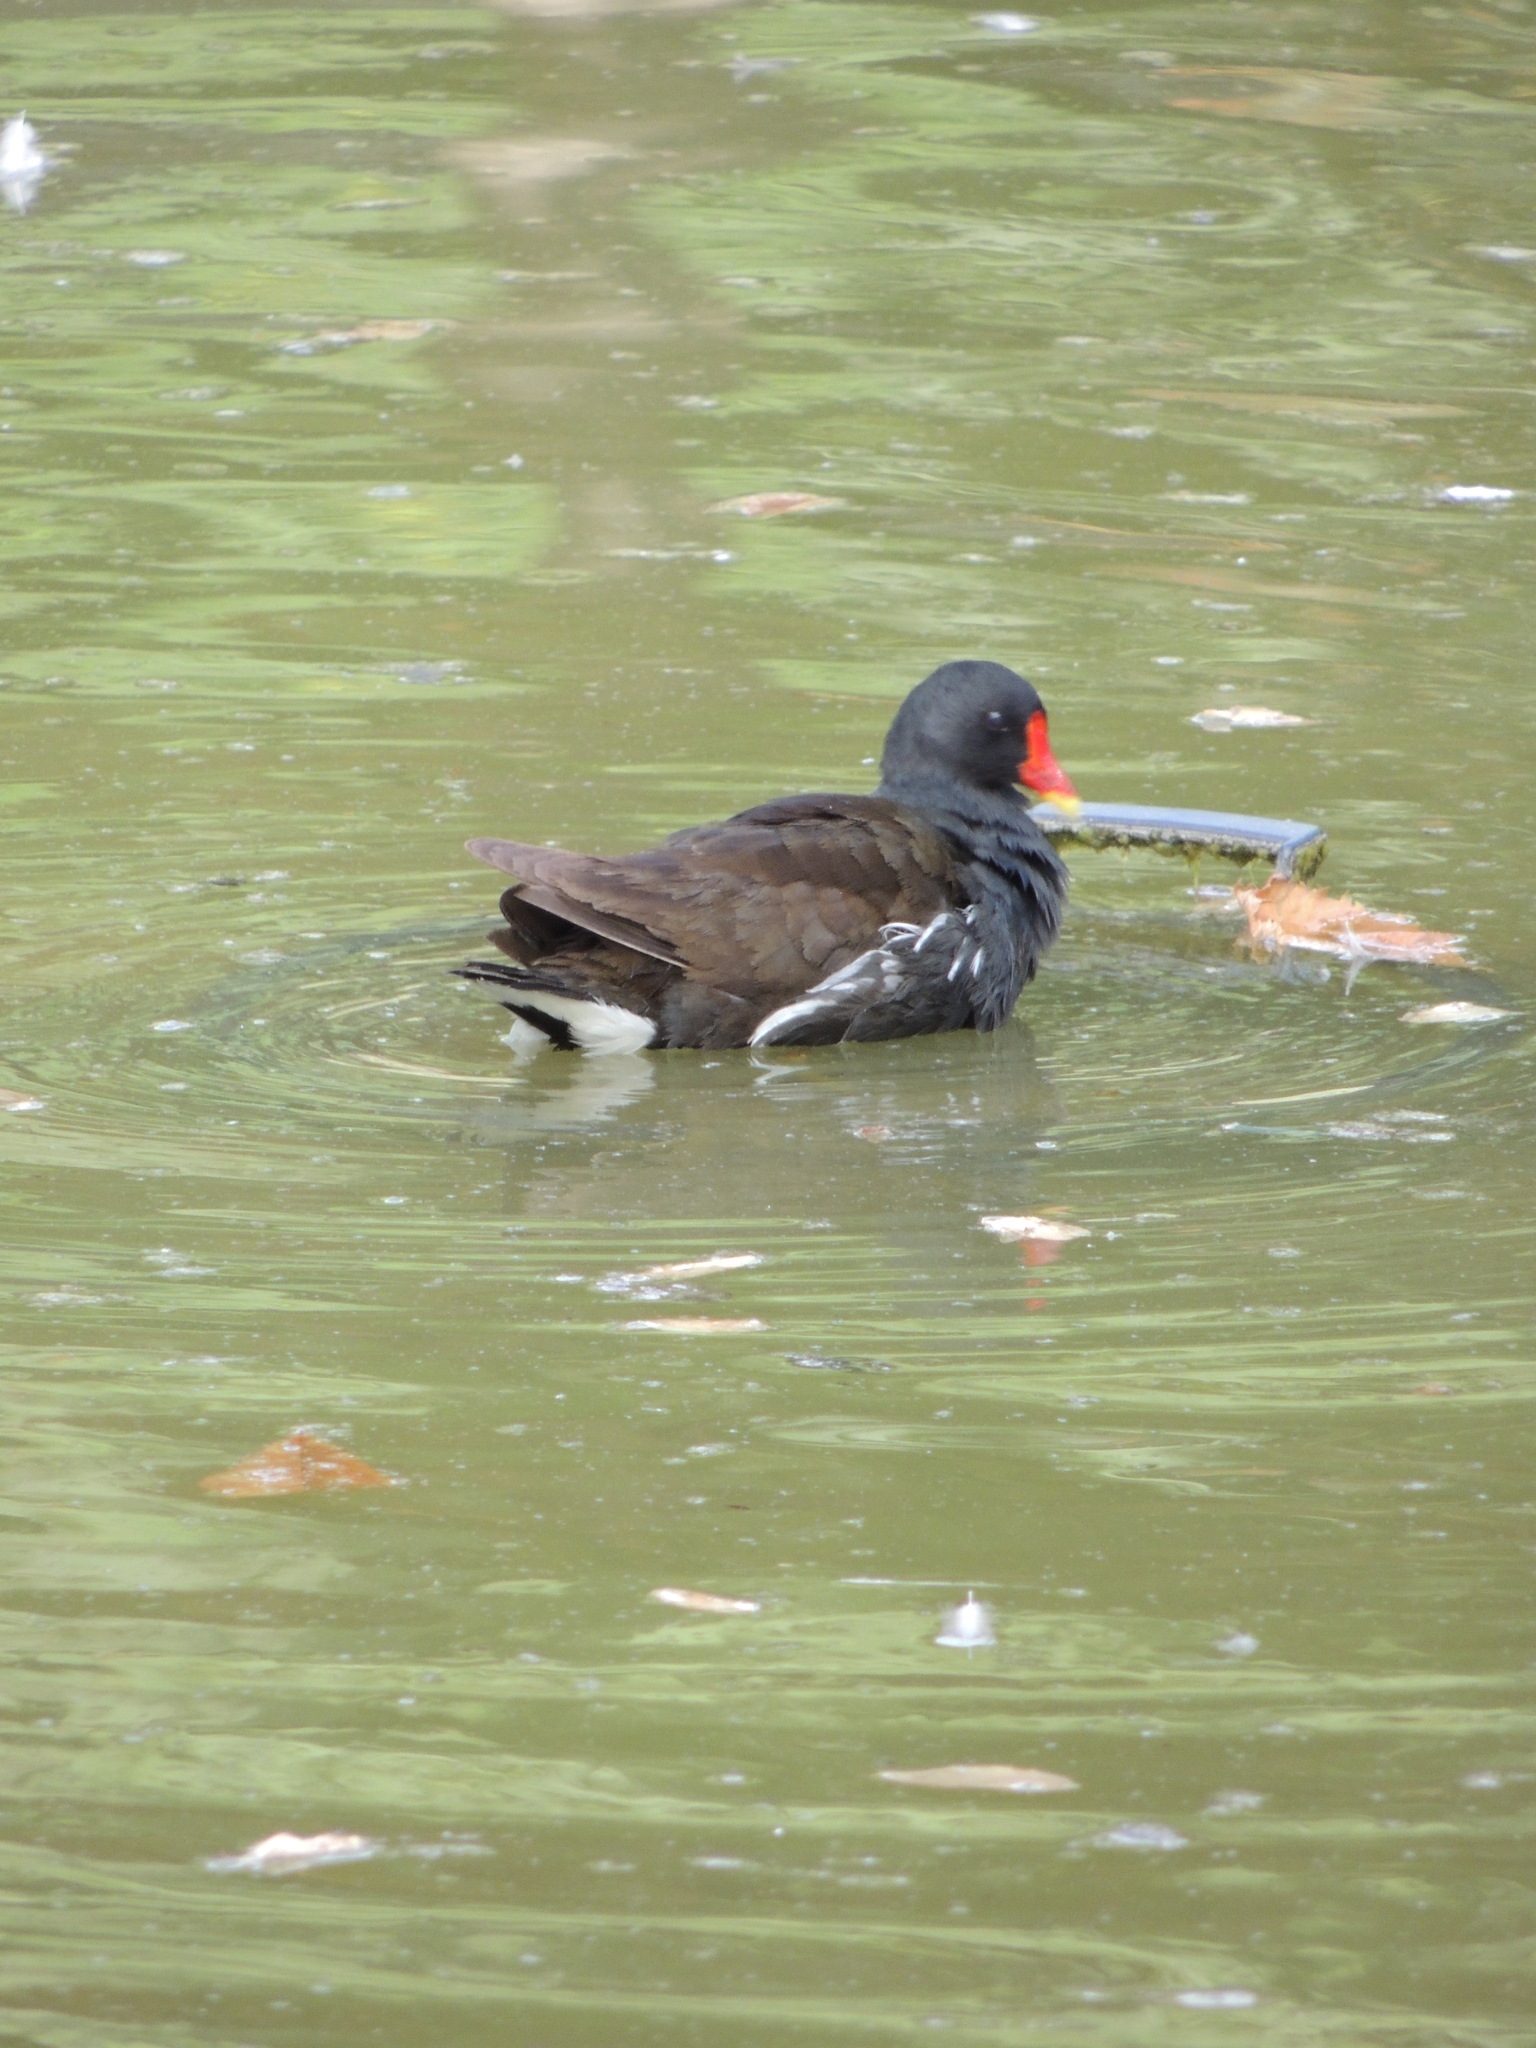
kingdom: Animalia
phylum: Chordata
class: Aves
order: Gruiformes
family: Rallidae
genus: Gallinula
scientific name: Gallinula chloropus
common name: Common moorhen
